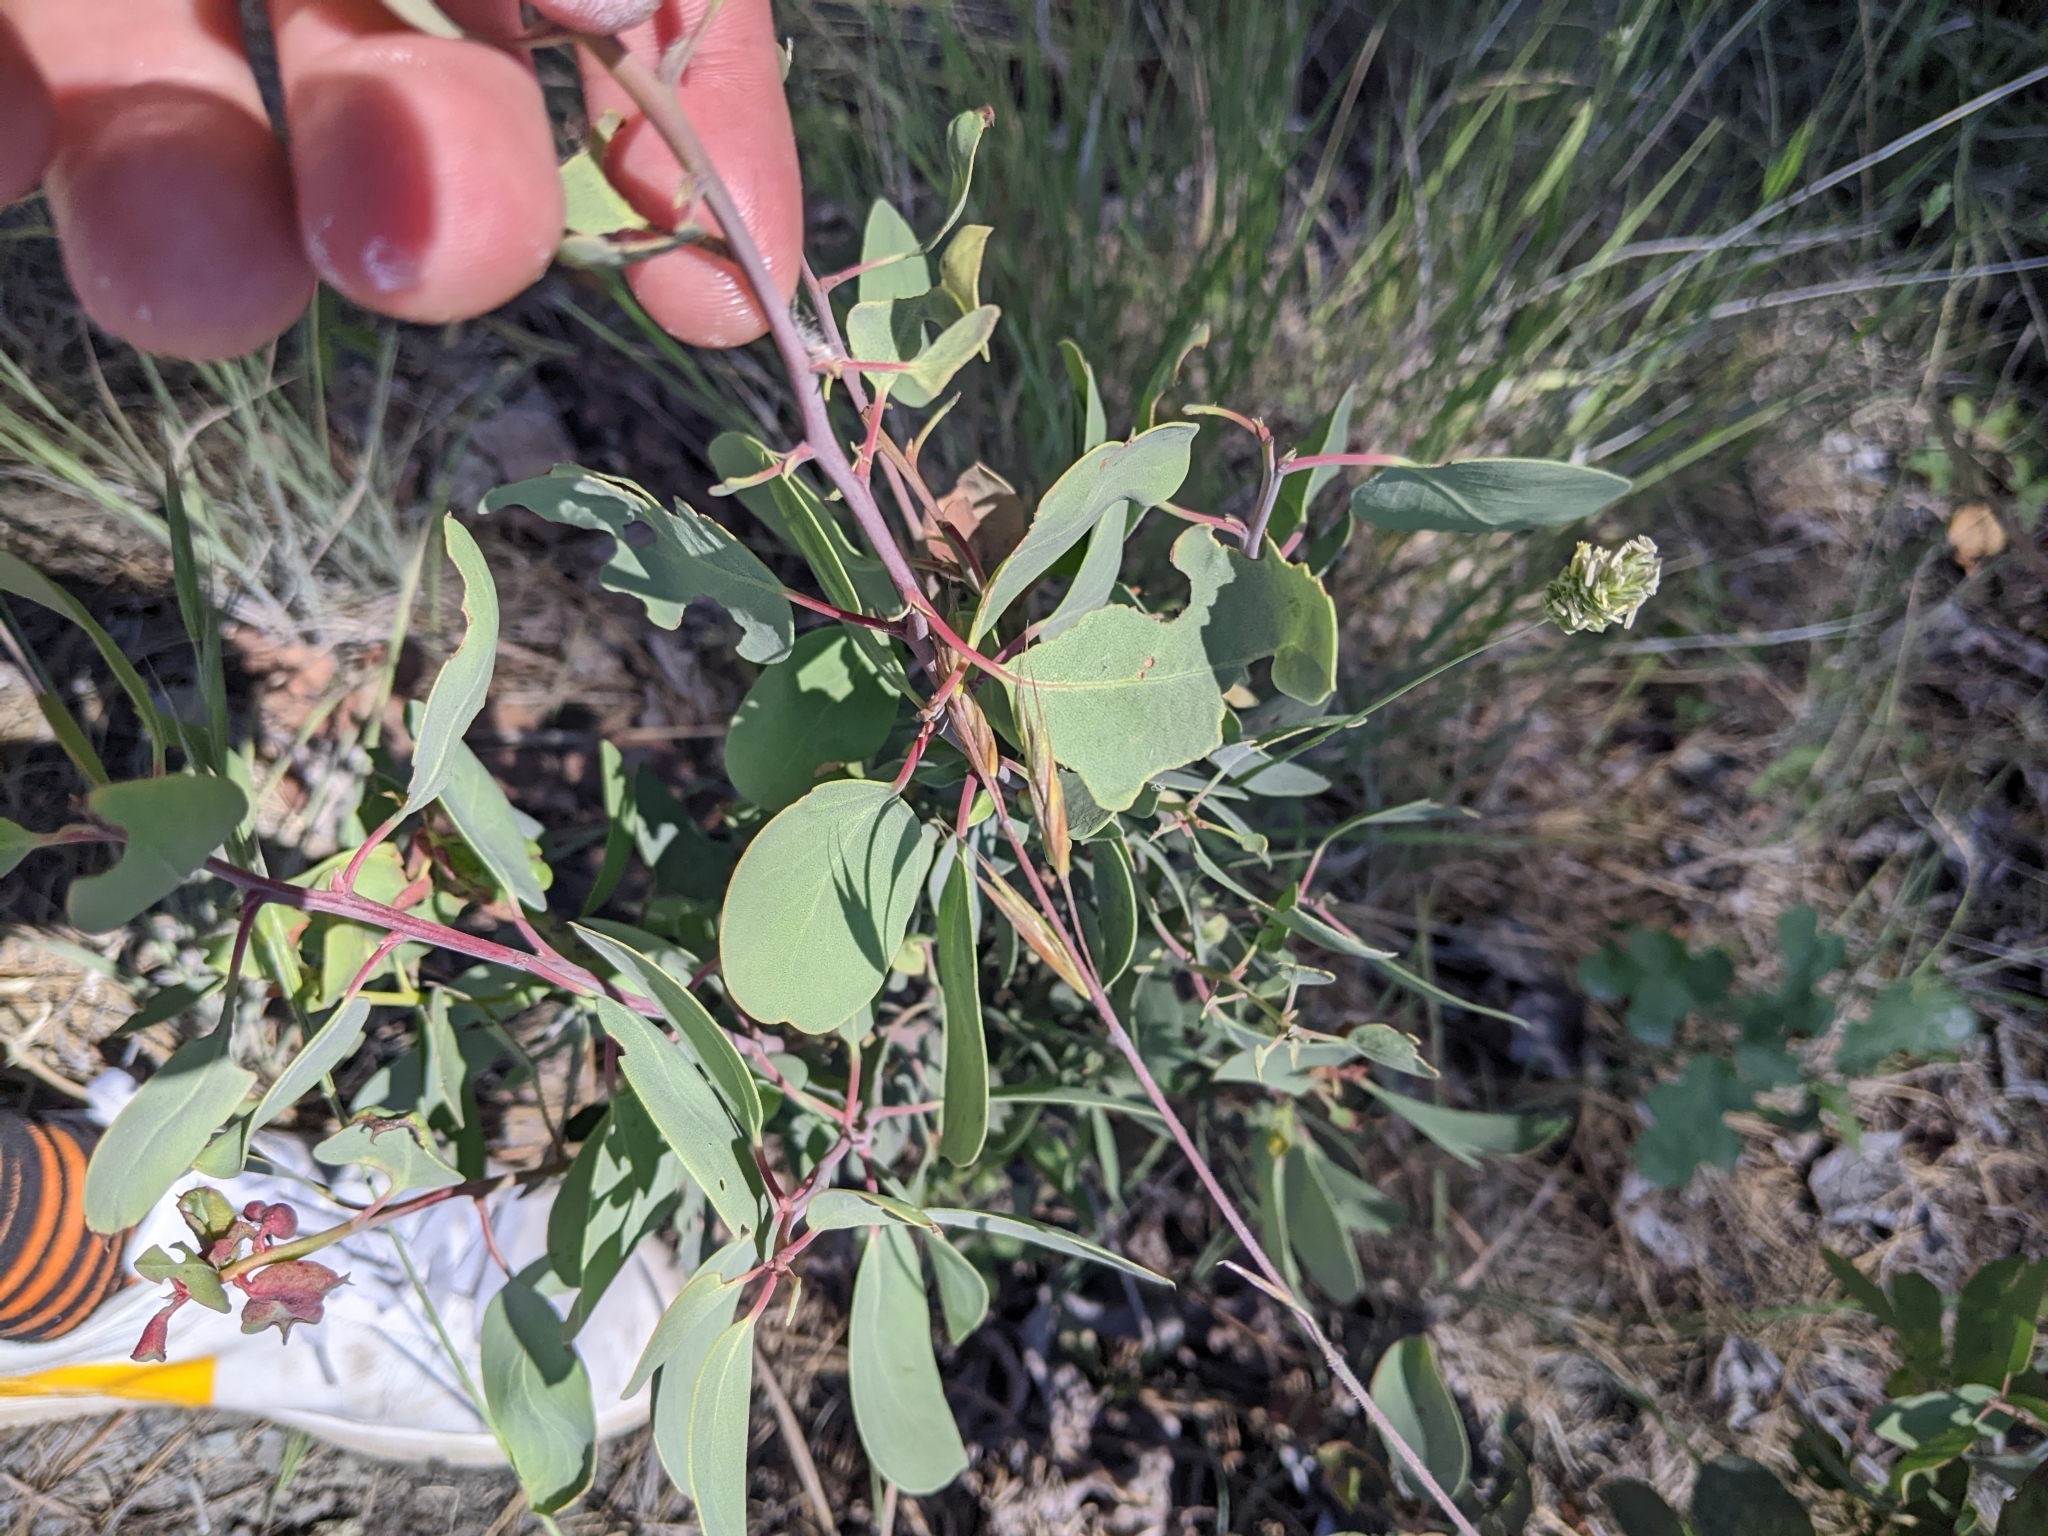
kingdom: Plantae
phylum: Tracheophyta
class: Magnoliopsida
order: Ericales
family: Ericaceae
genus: Arctostaphylos
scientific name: Arctostaphylos viscida
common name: White-leaf manzanita
